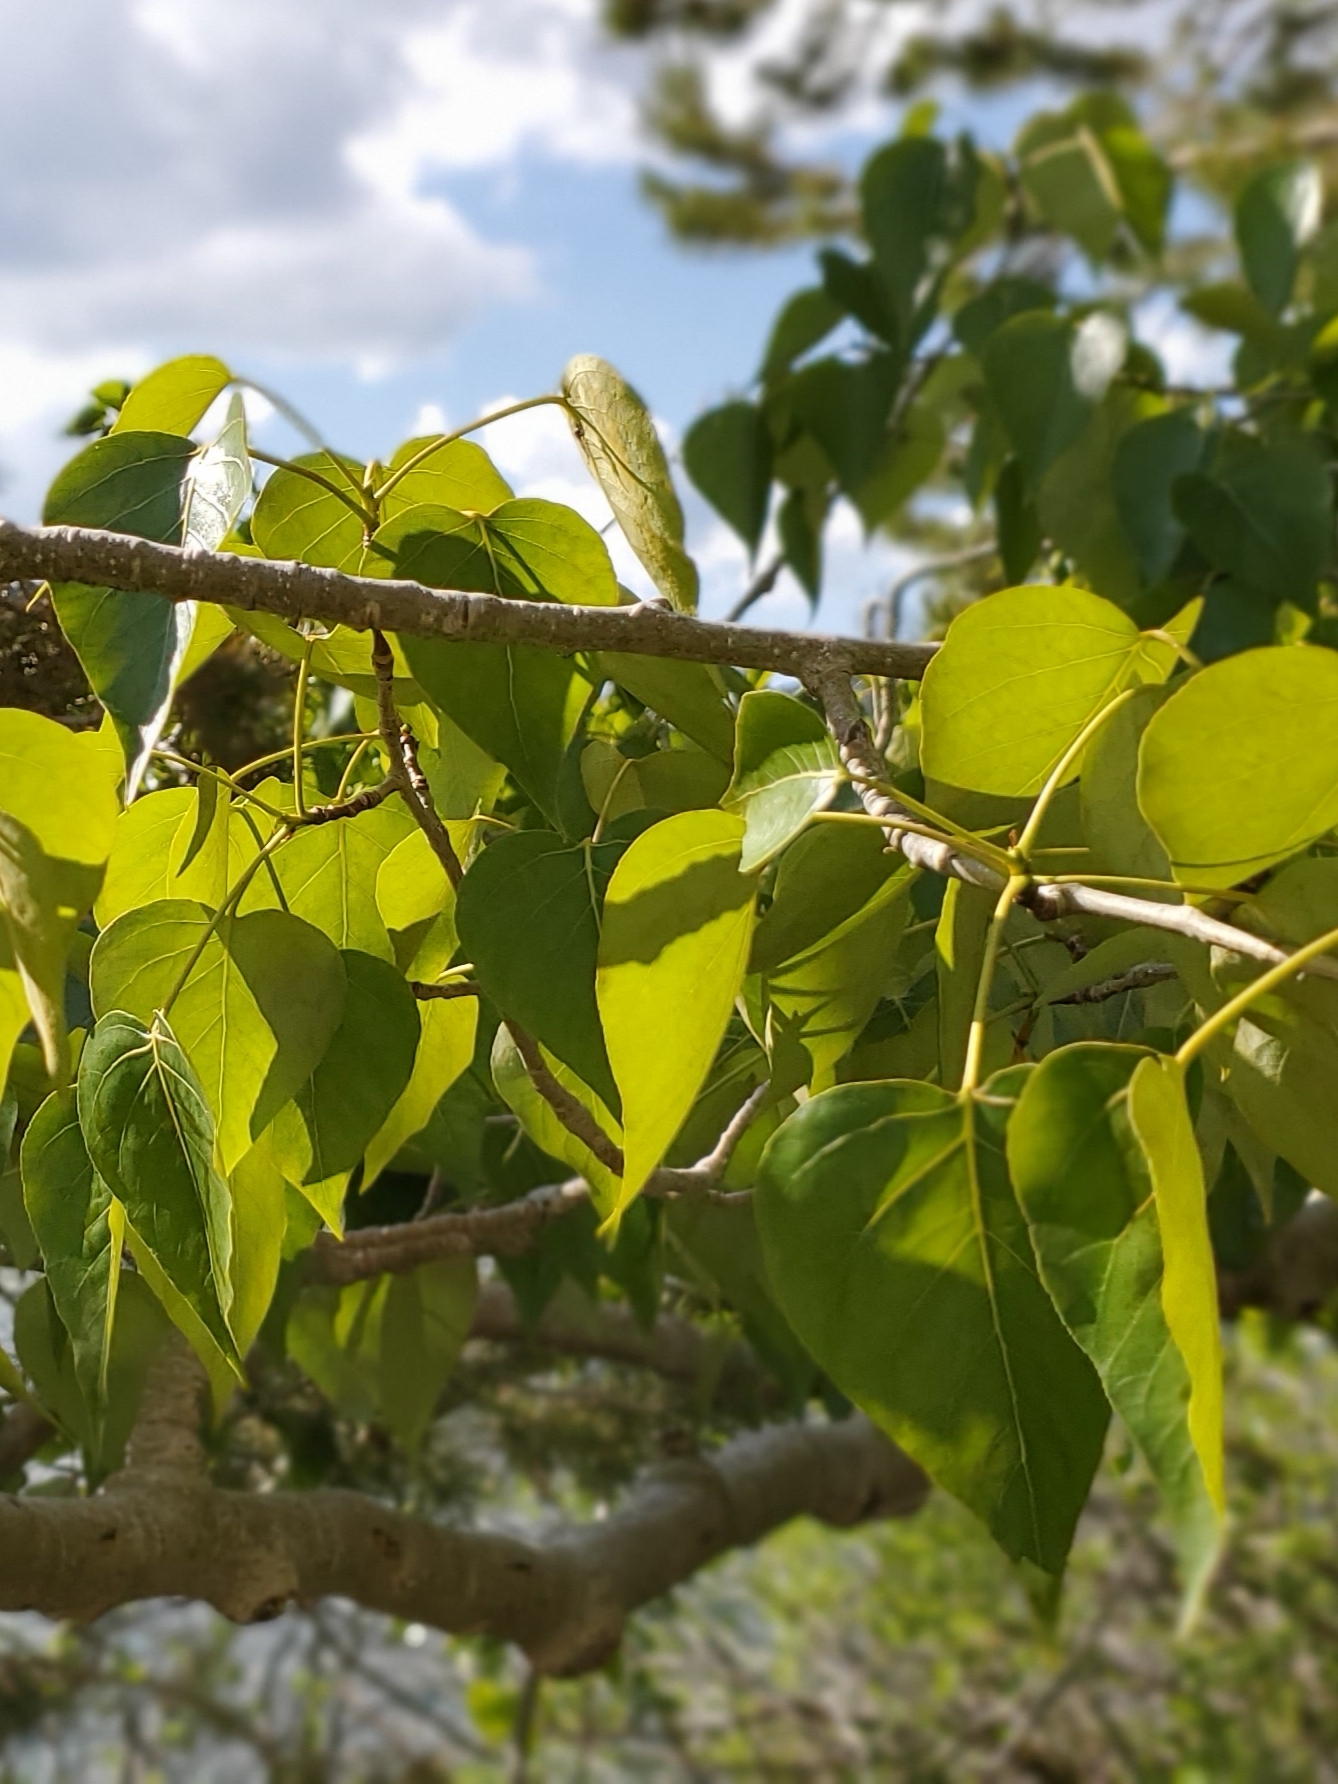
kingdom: Plantae
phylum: Tracheophyta
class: Magnoliopsida
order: Malpighiales
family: Salicaceae
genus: Populus
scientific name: Populus trichocarpa
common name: Black cottonwood
